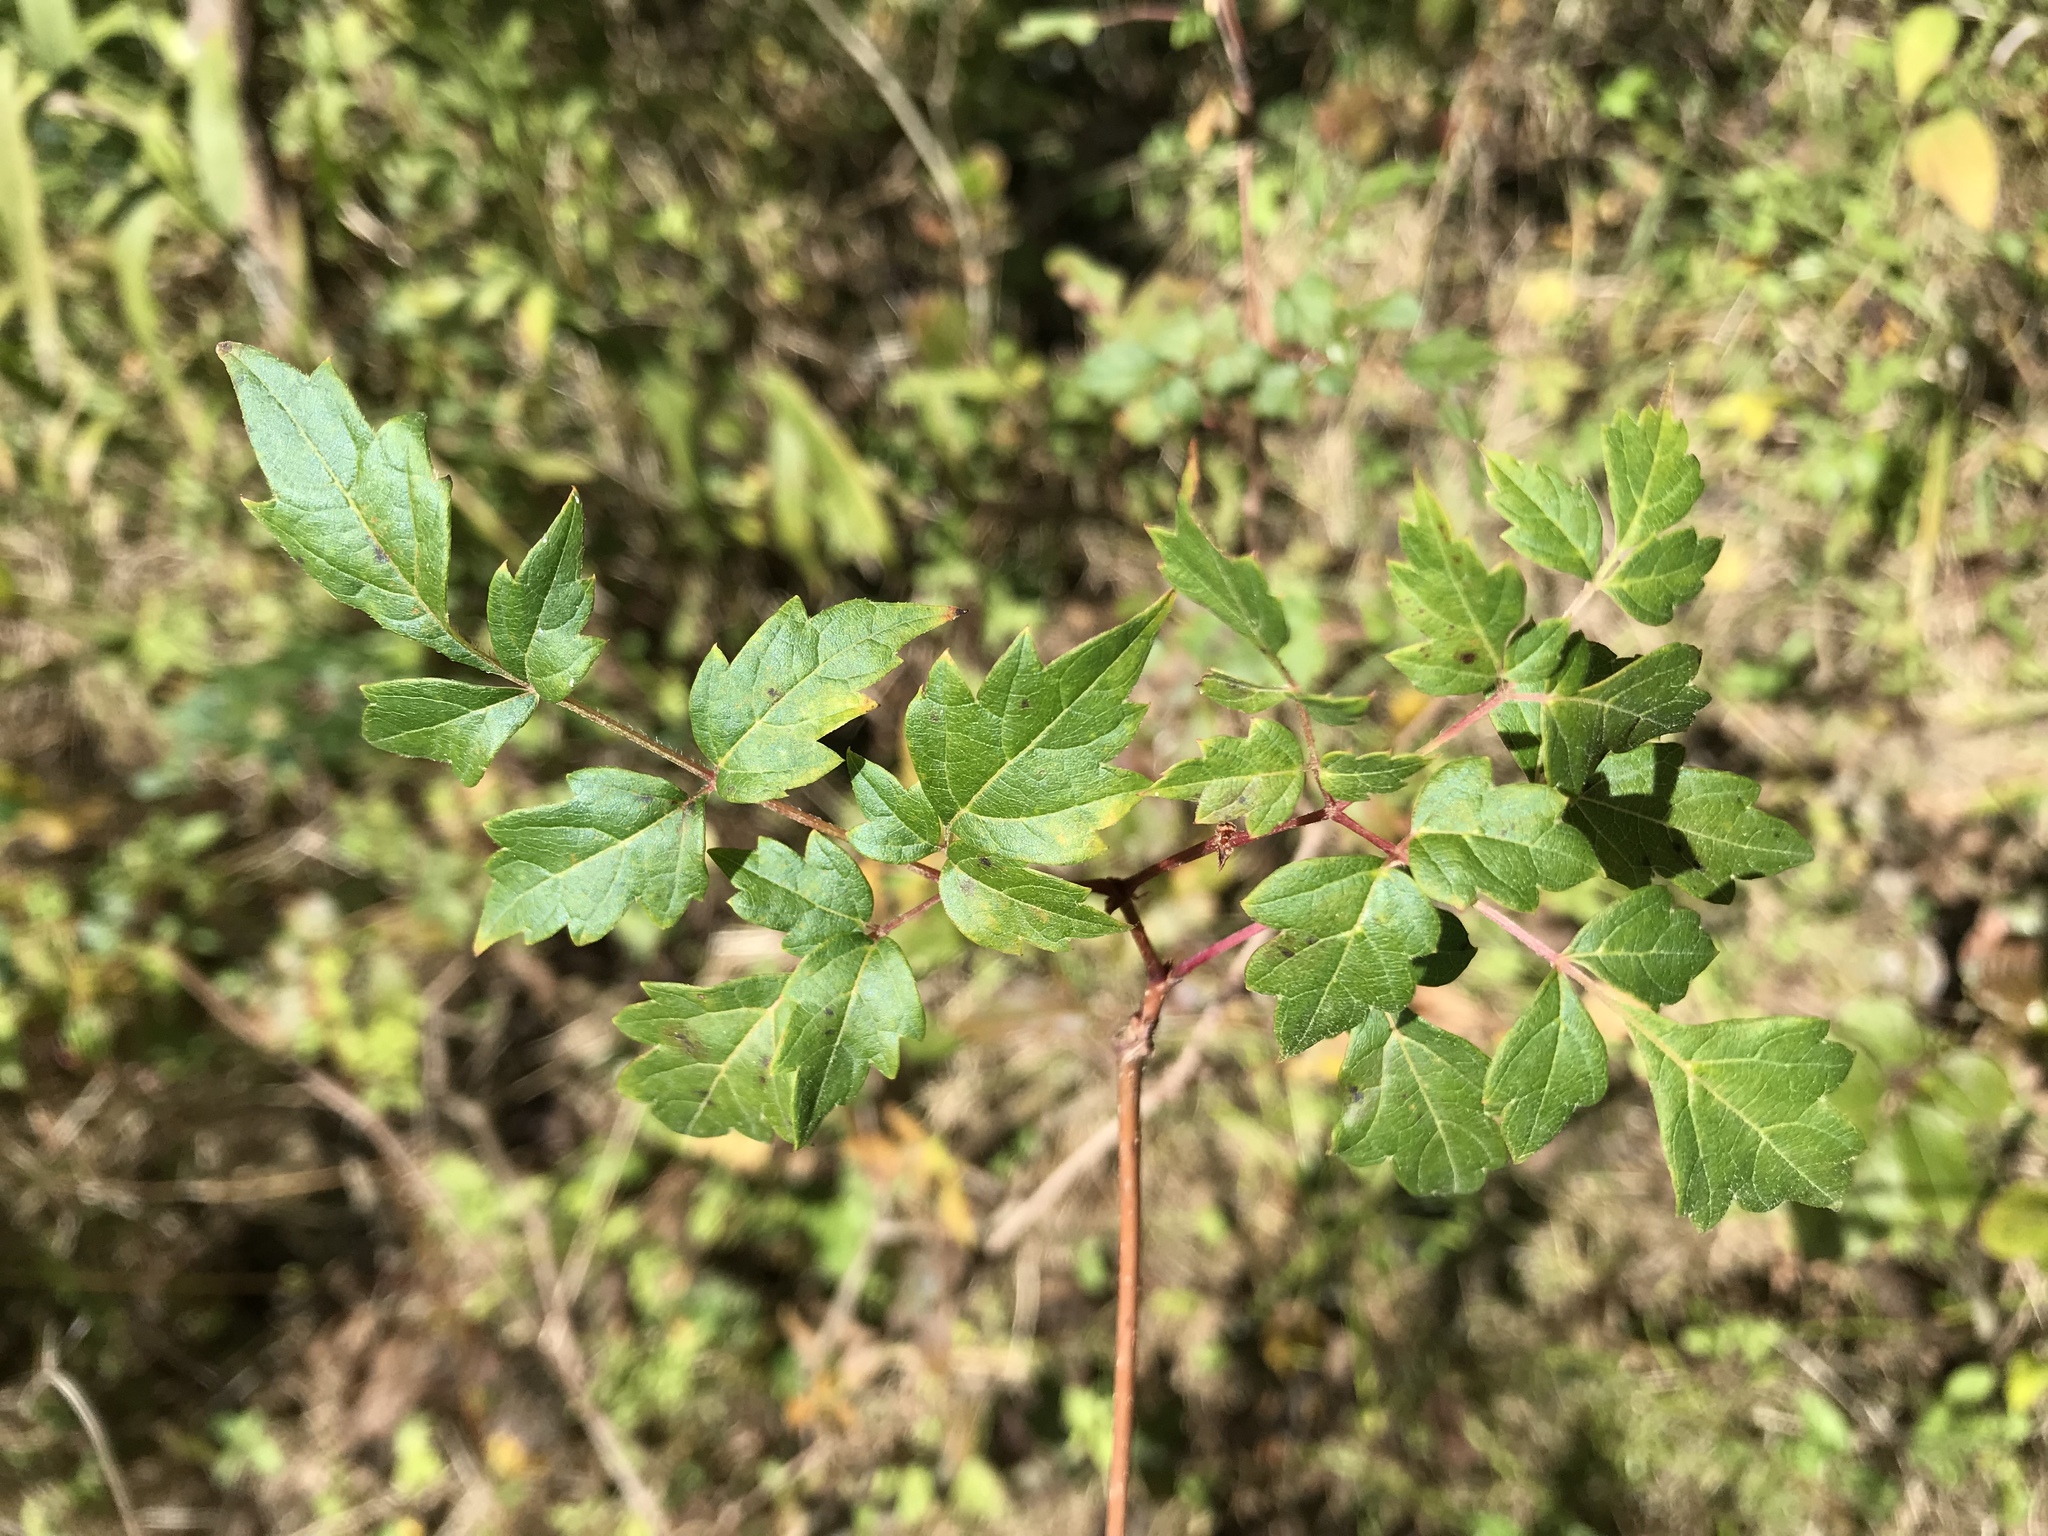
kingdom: Plantae
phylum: Tracheophyta
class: Magnoliopsida
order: Vitales
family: Vitaceae
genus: Nekemias
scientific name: Nekemias arborea
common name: Peppervine
